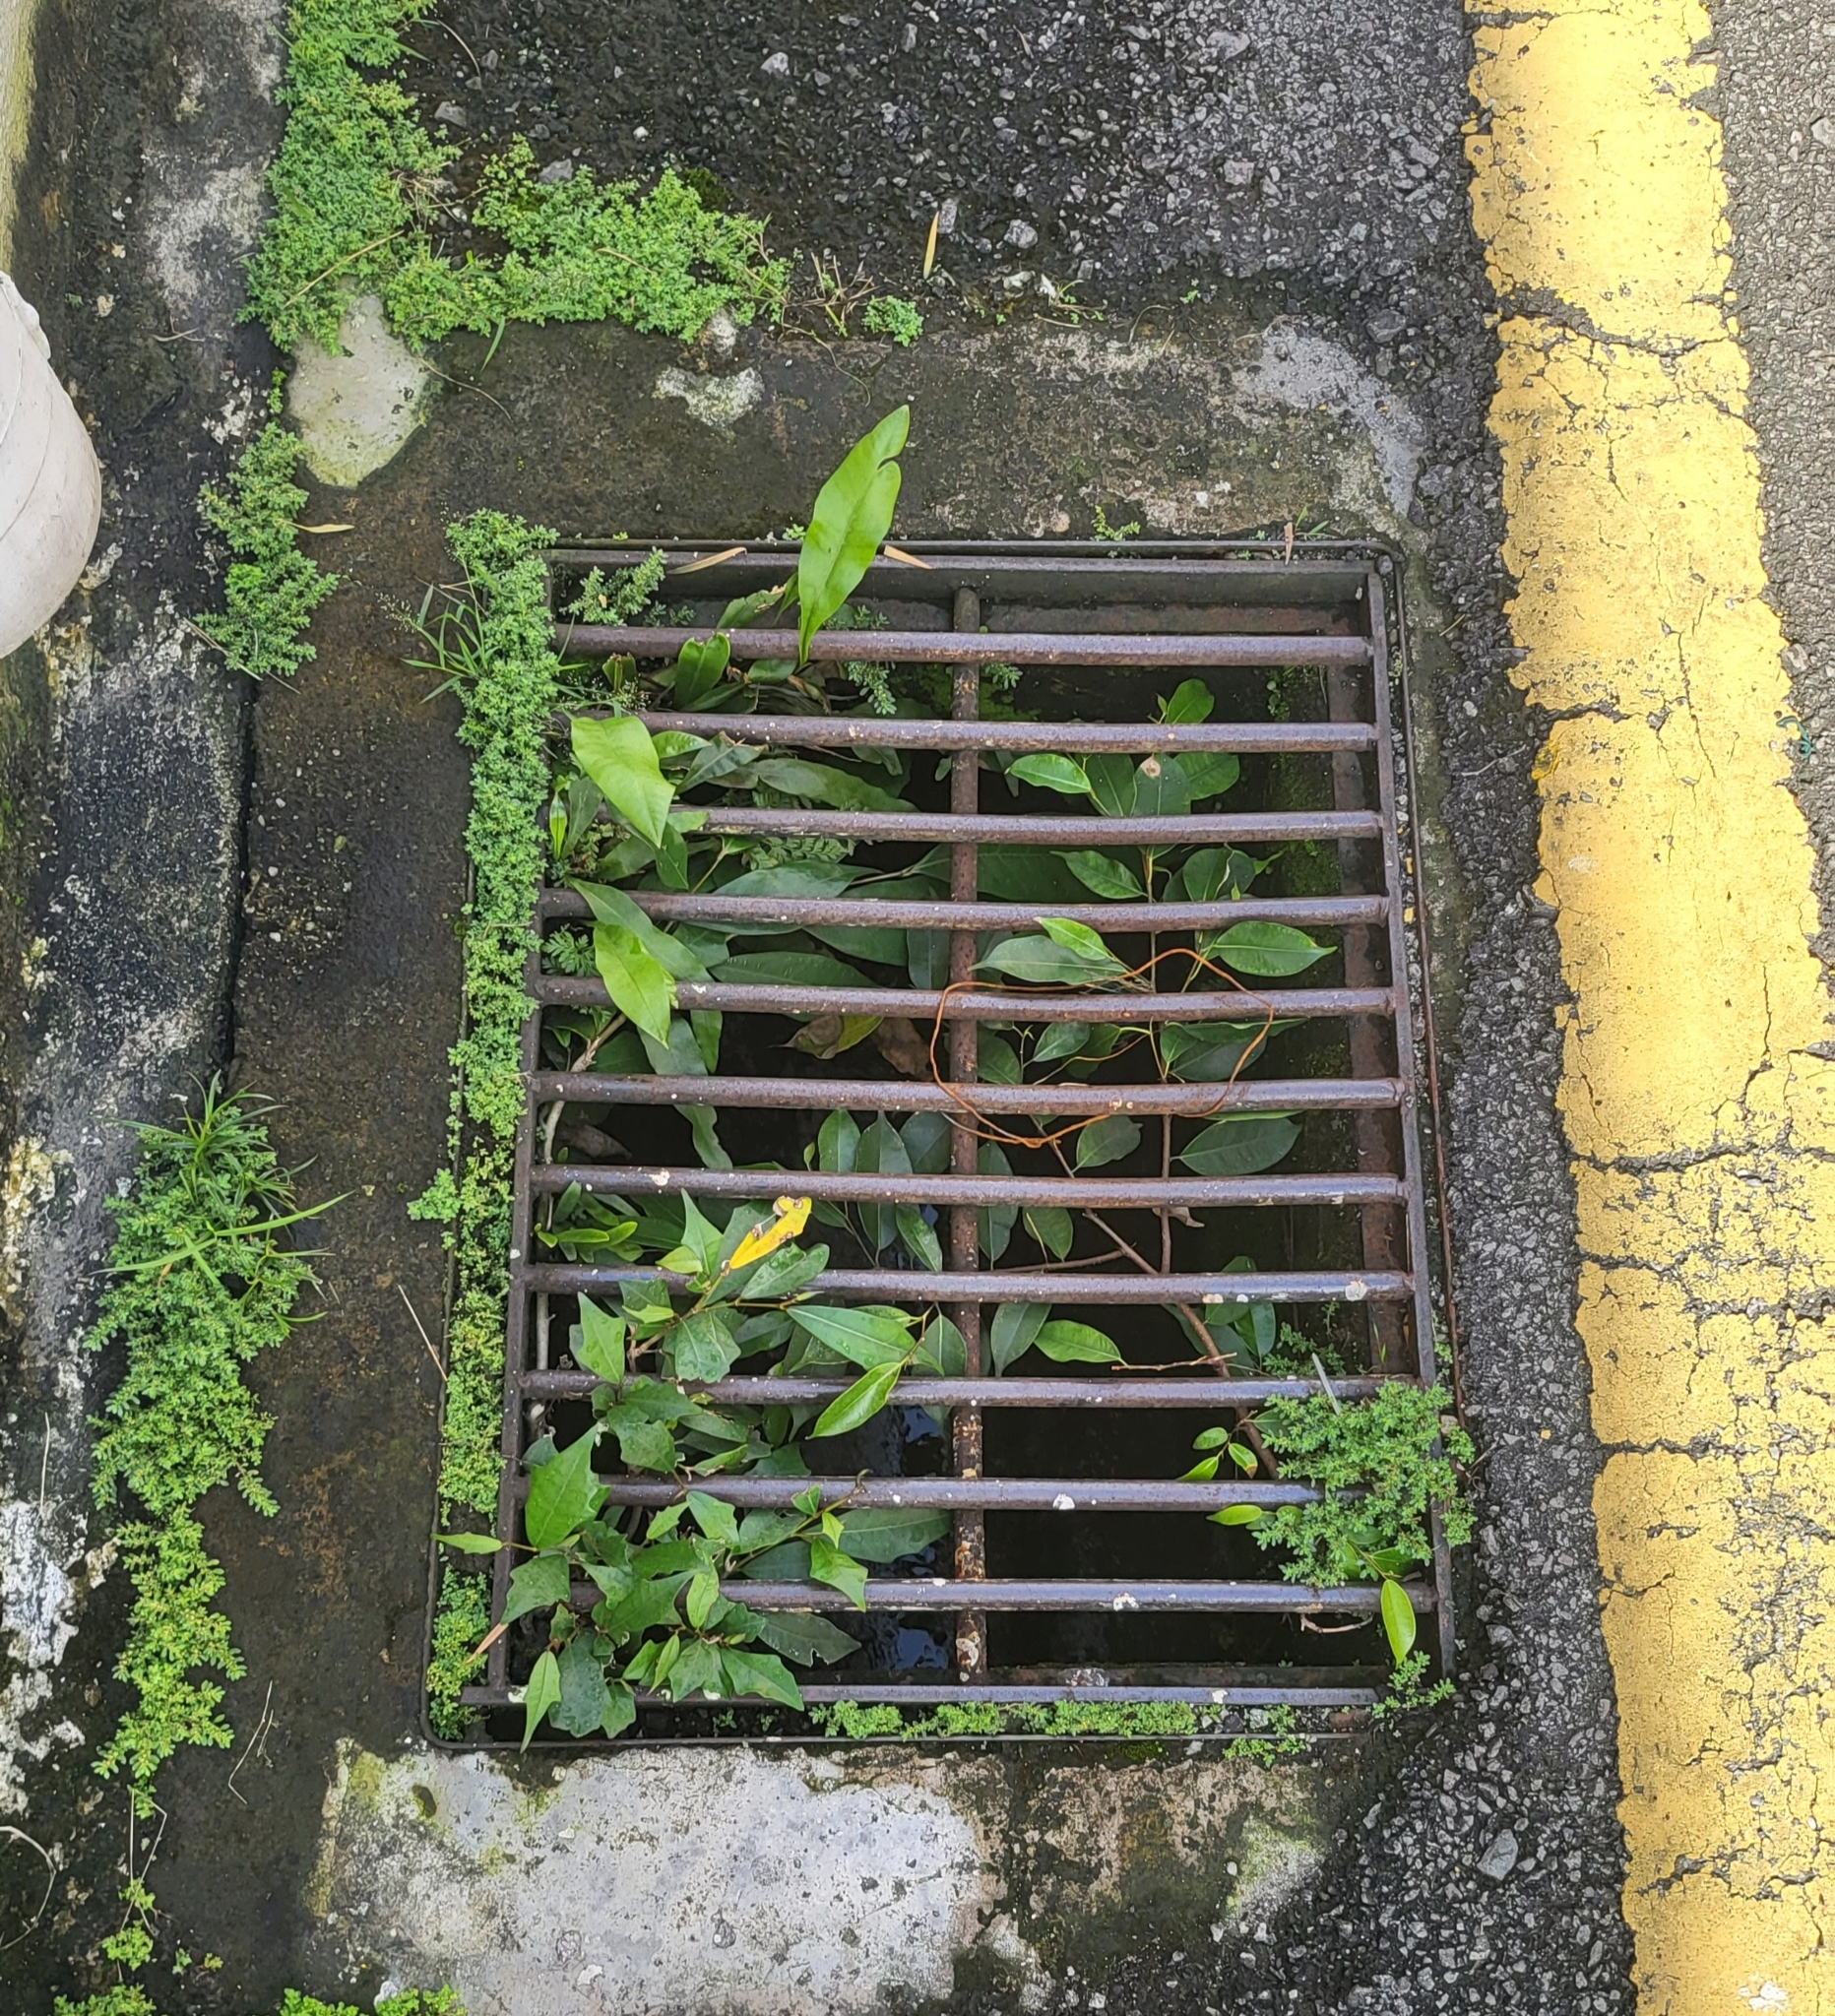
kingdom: Plantae
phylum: Tracheophyta
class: Magnoliopsida
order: Rosales
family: Moraceae
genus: Ficus
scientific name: Ficus microcarpa
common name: Chinese banyan
